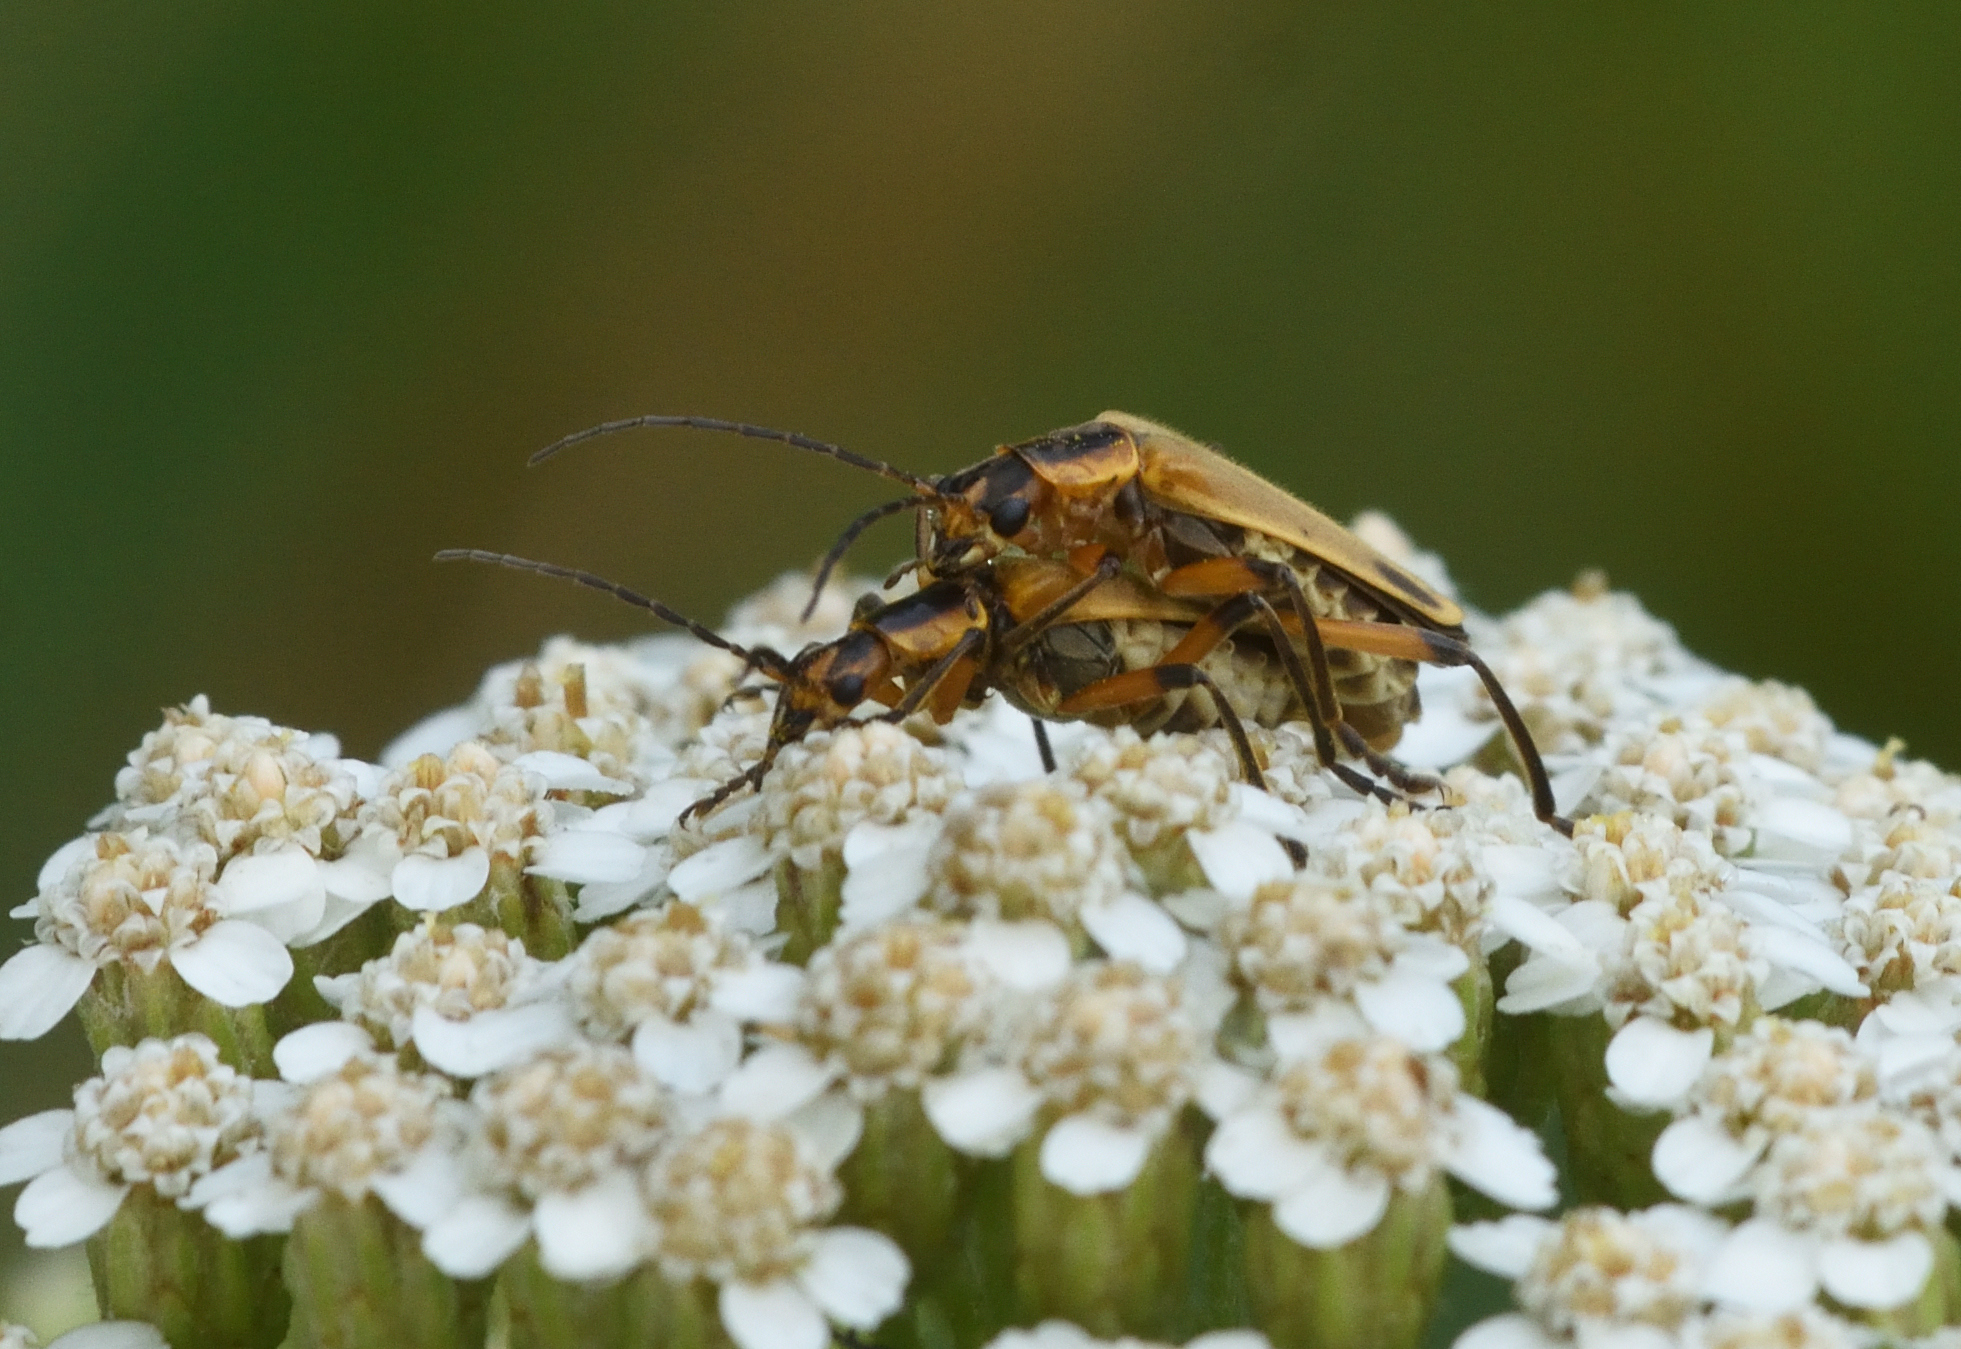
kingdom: Animalia
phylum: Arthropoda
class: Insecta
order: Coleoptera
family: Cantharidae
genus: Chauliognathus
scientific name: Chauliognathus marginatus
